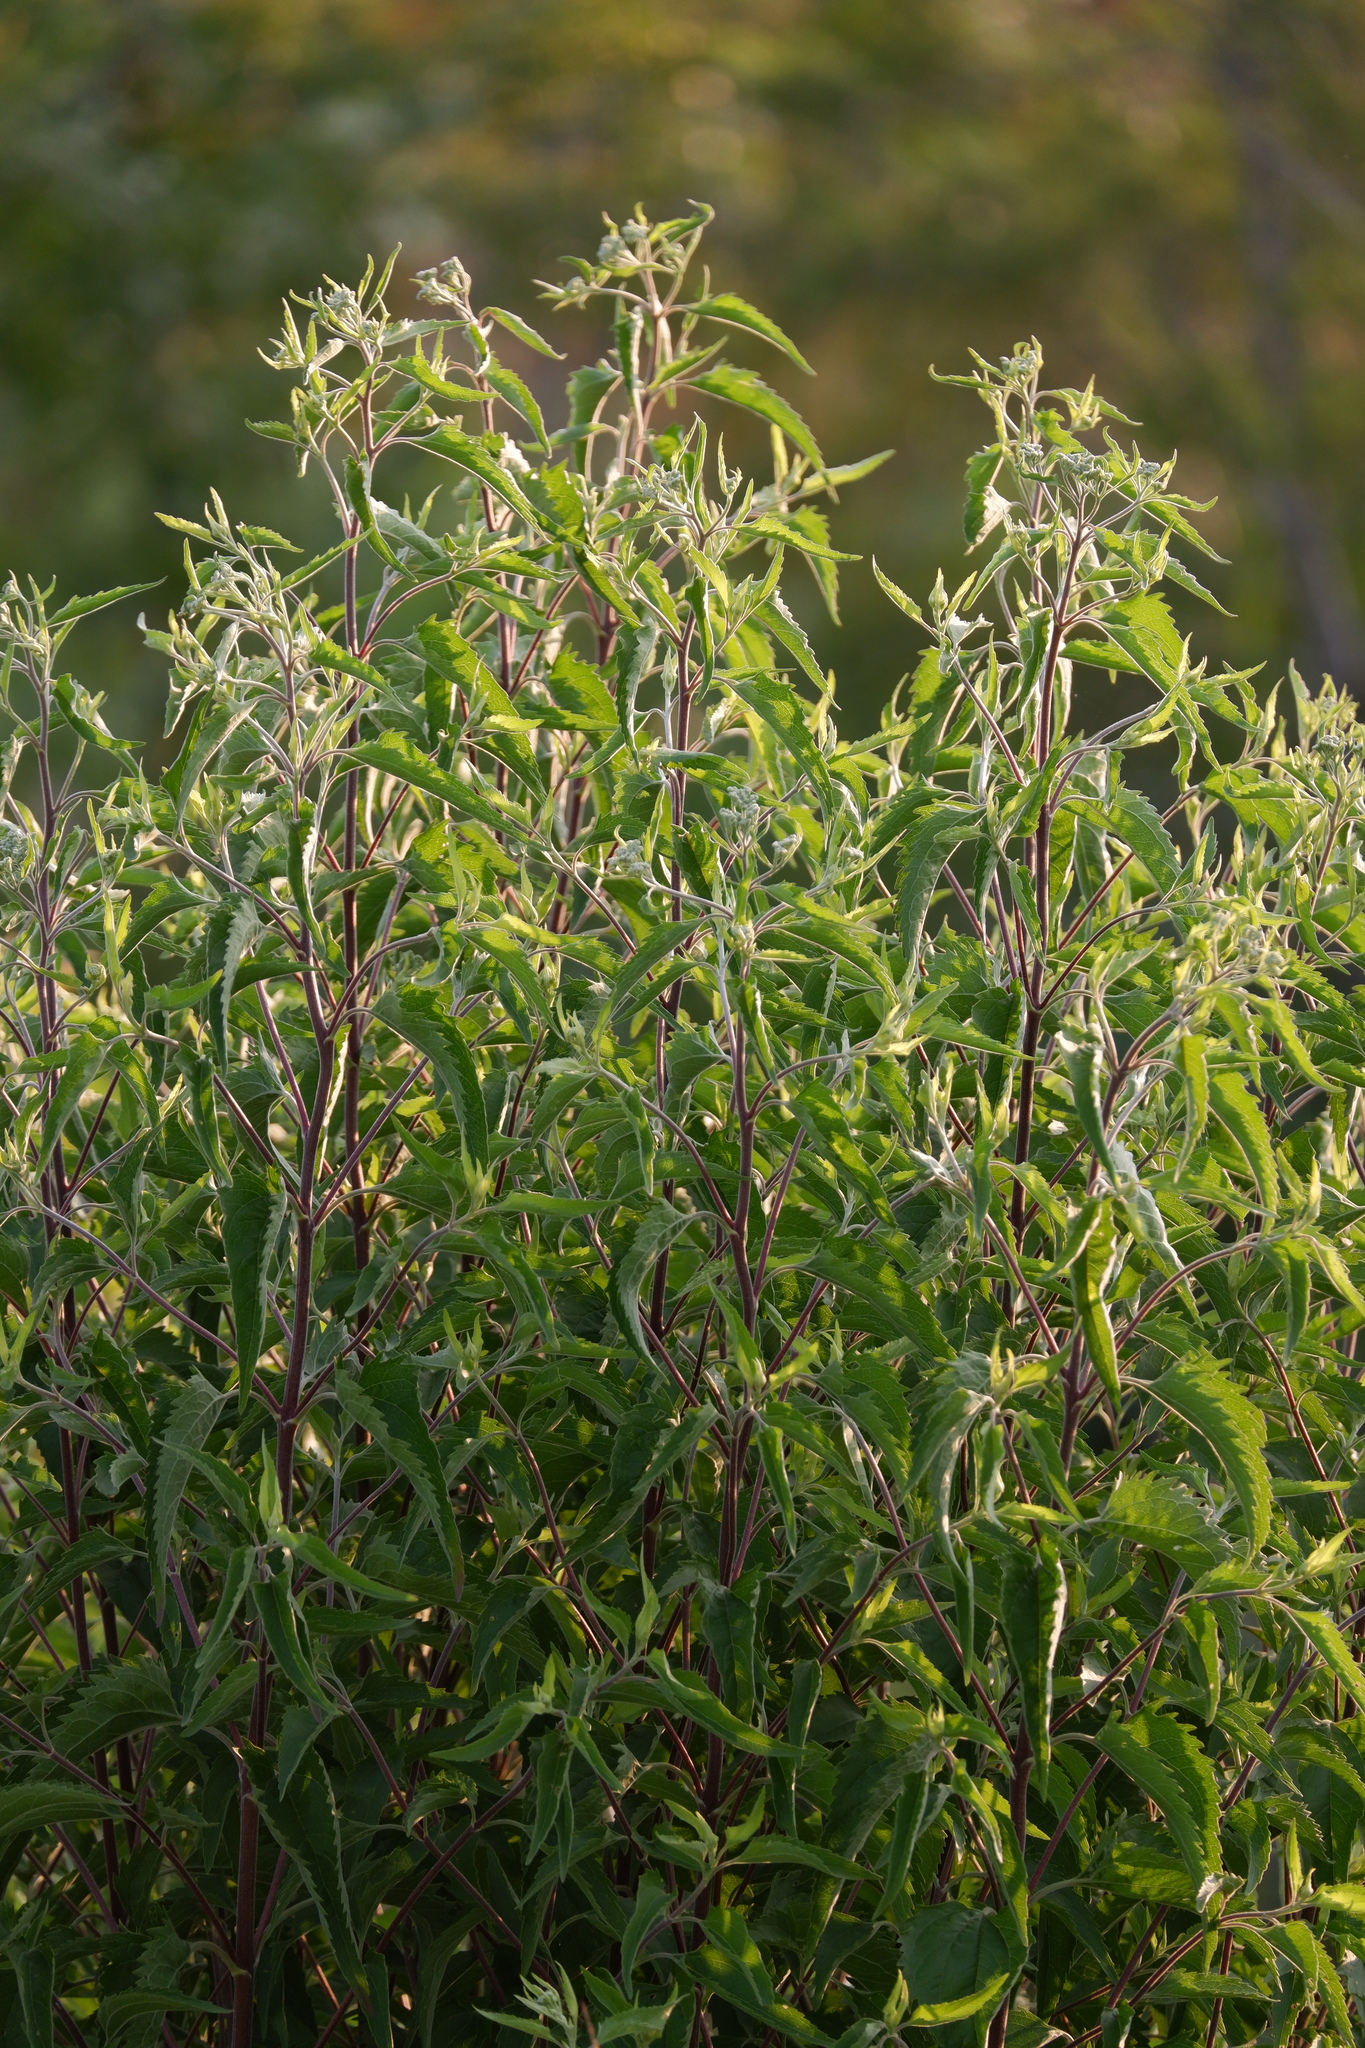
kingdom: Plantae
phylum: Tracheophyta
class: Magnoliopsida
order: Asterales
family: Asteraceae
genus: Eupatorium
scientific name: Eupatorium serotinum
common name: Late boneset
